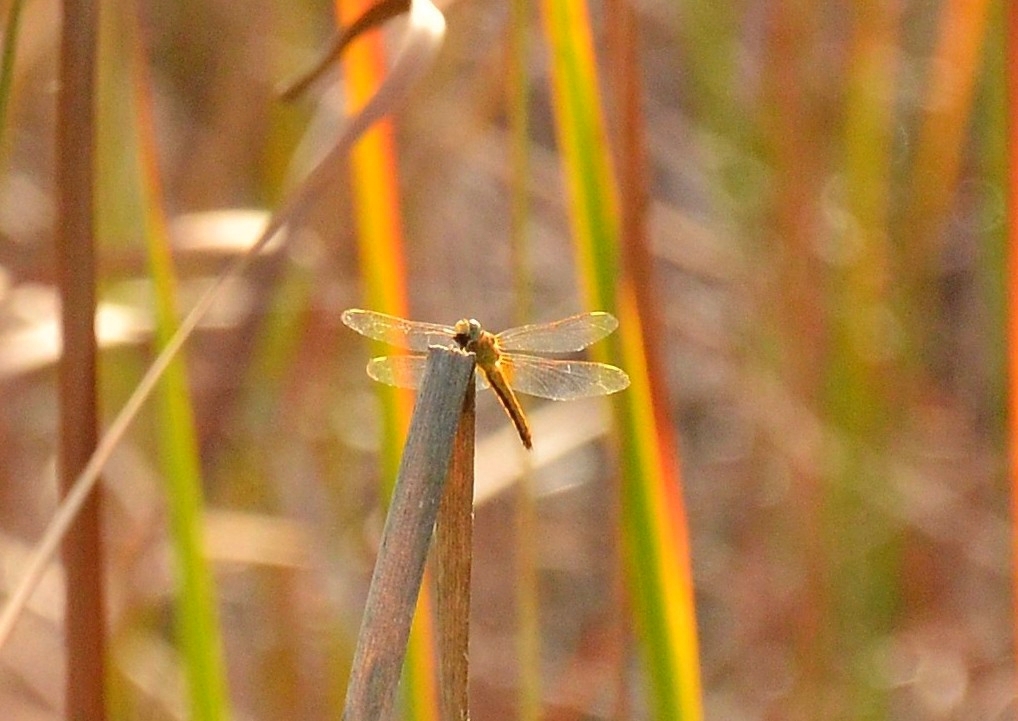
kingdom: Animalia
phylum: Arthropoda
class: Insecta
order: Odonata
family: Libellulidae
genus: Crocothemis
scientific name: Crocothemis servilia
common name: Scarlet skimmer
